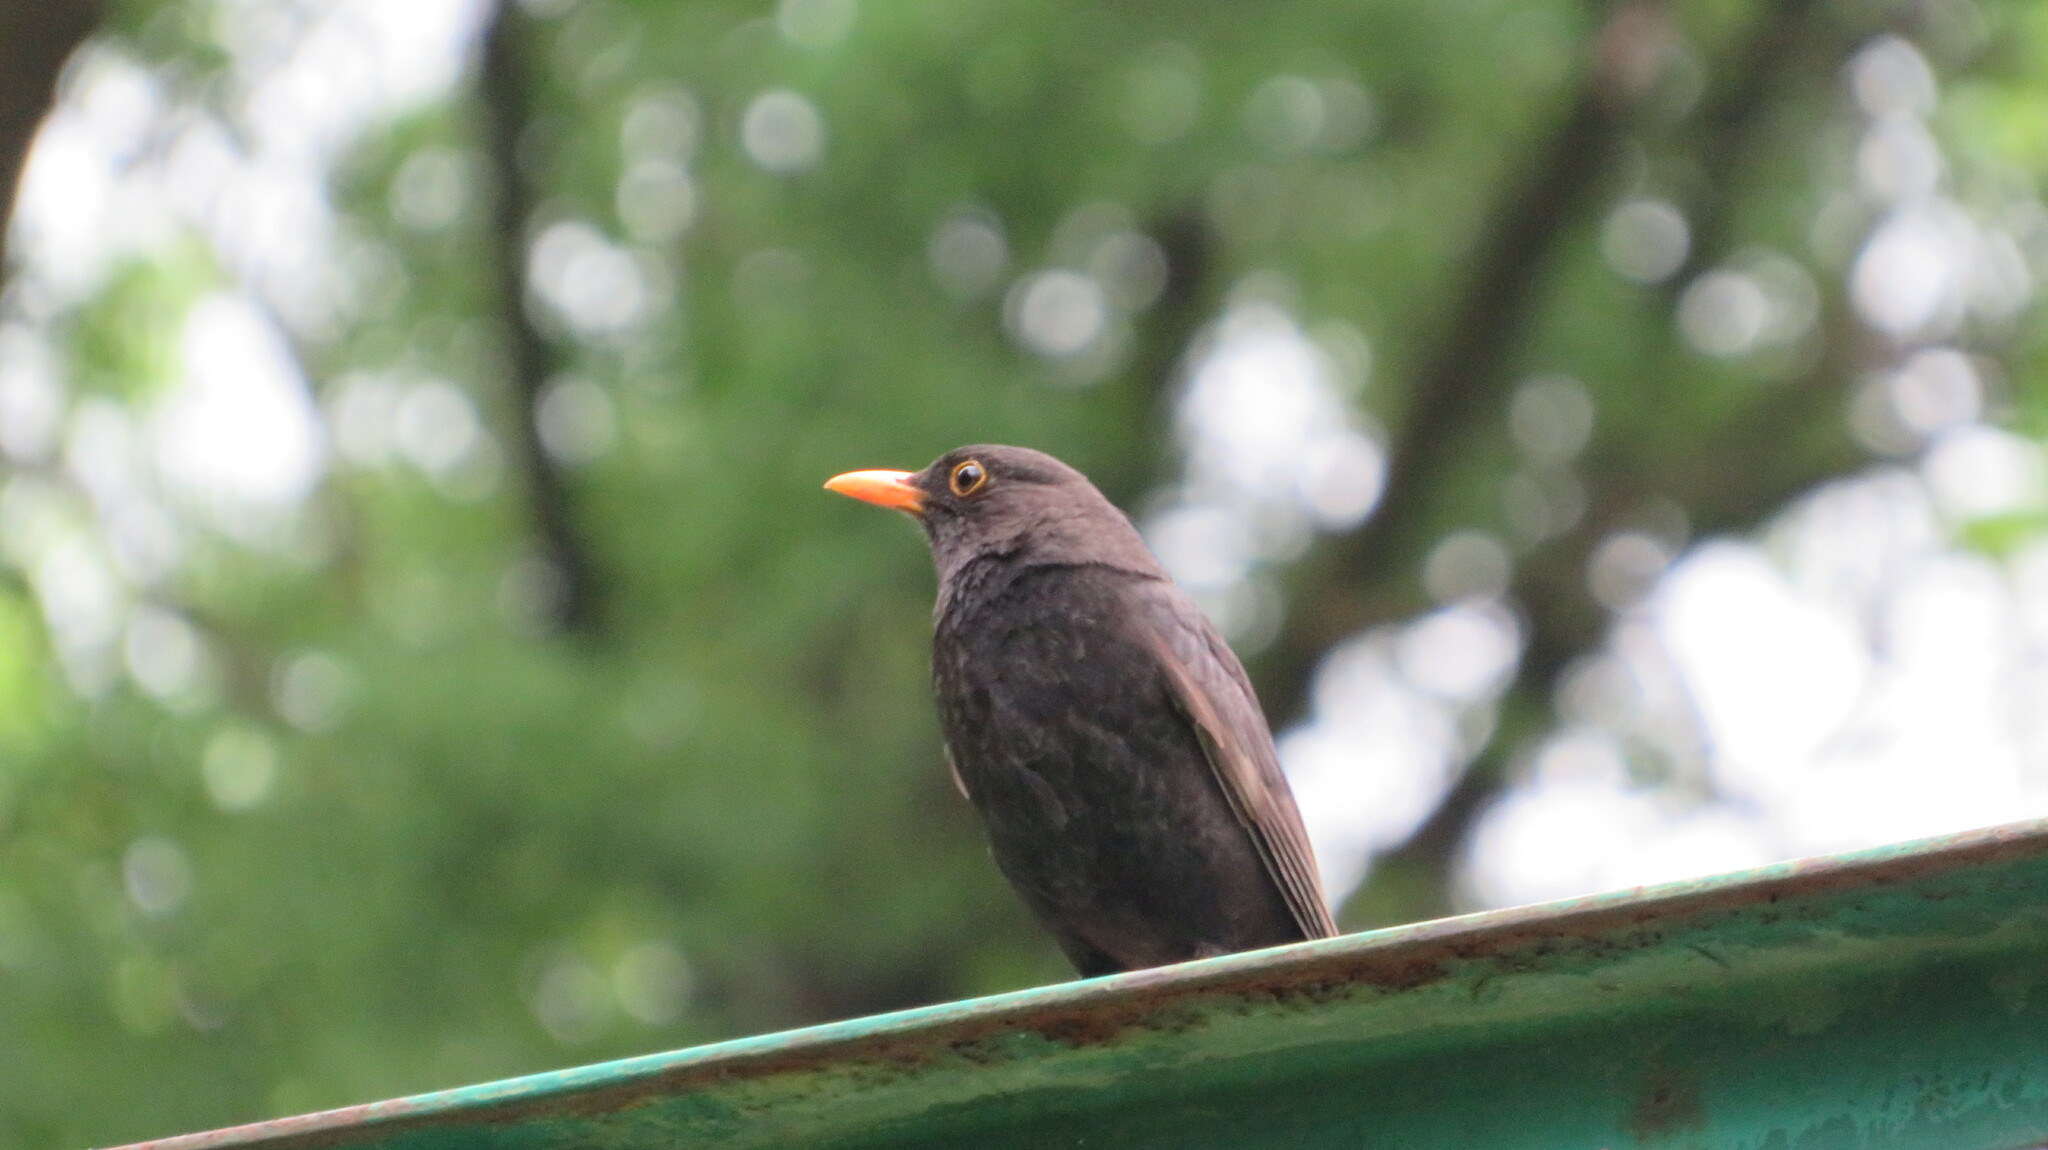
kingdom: Animalia
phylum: Chordata
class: Aves
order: Passeriformes
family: Turdidae
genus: Turdus
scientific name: Turdus merula
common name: Common blackbird
